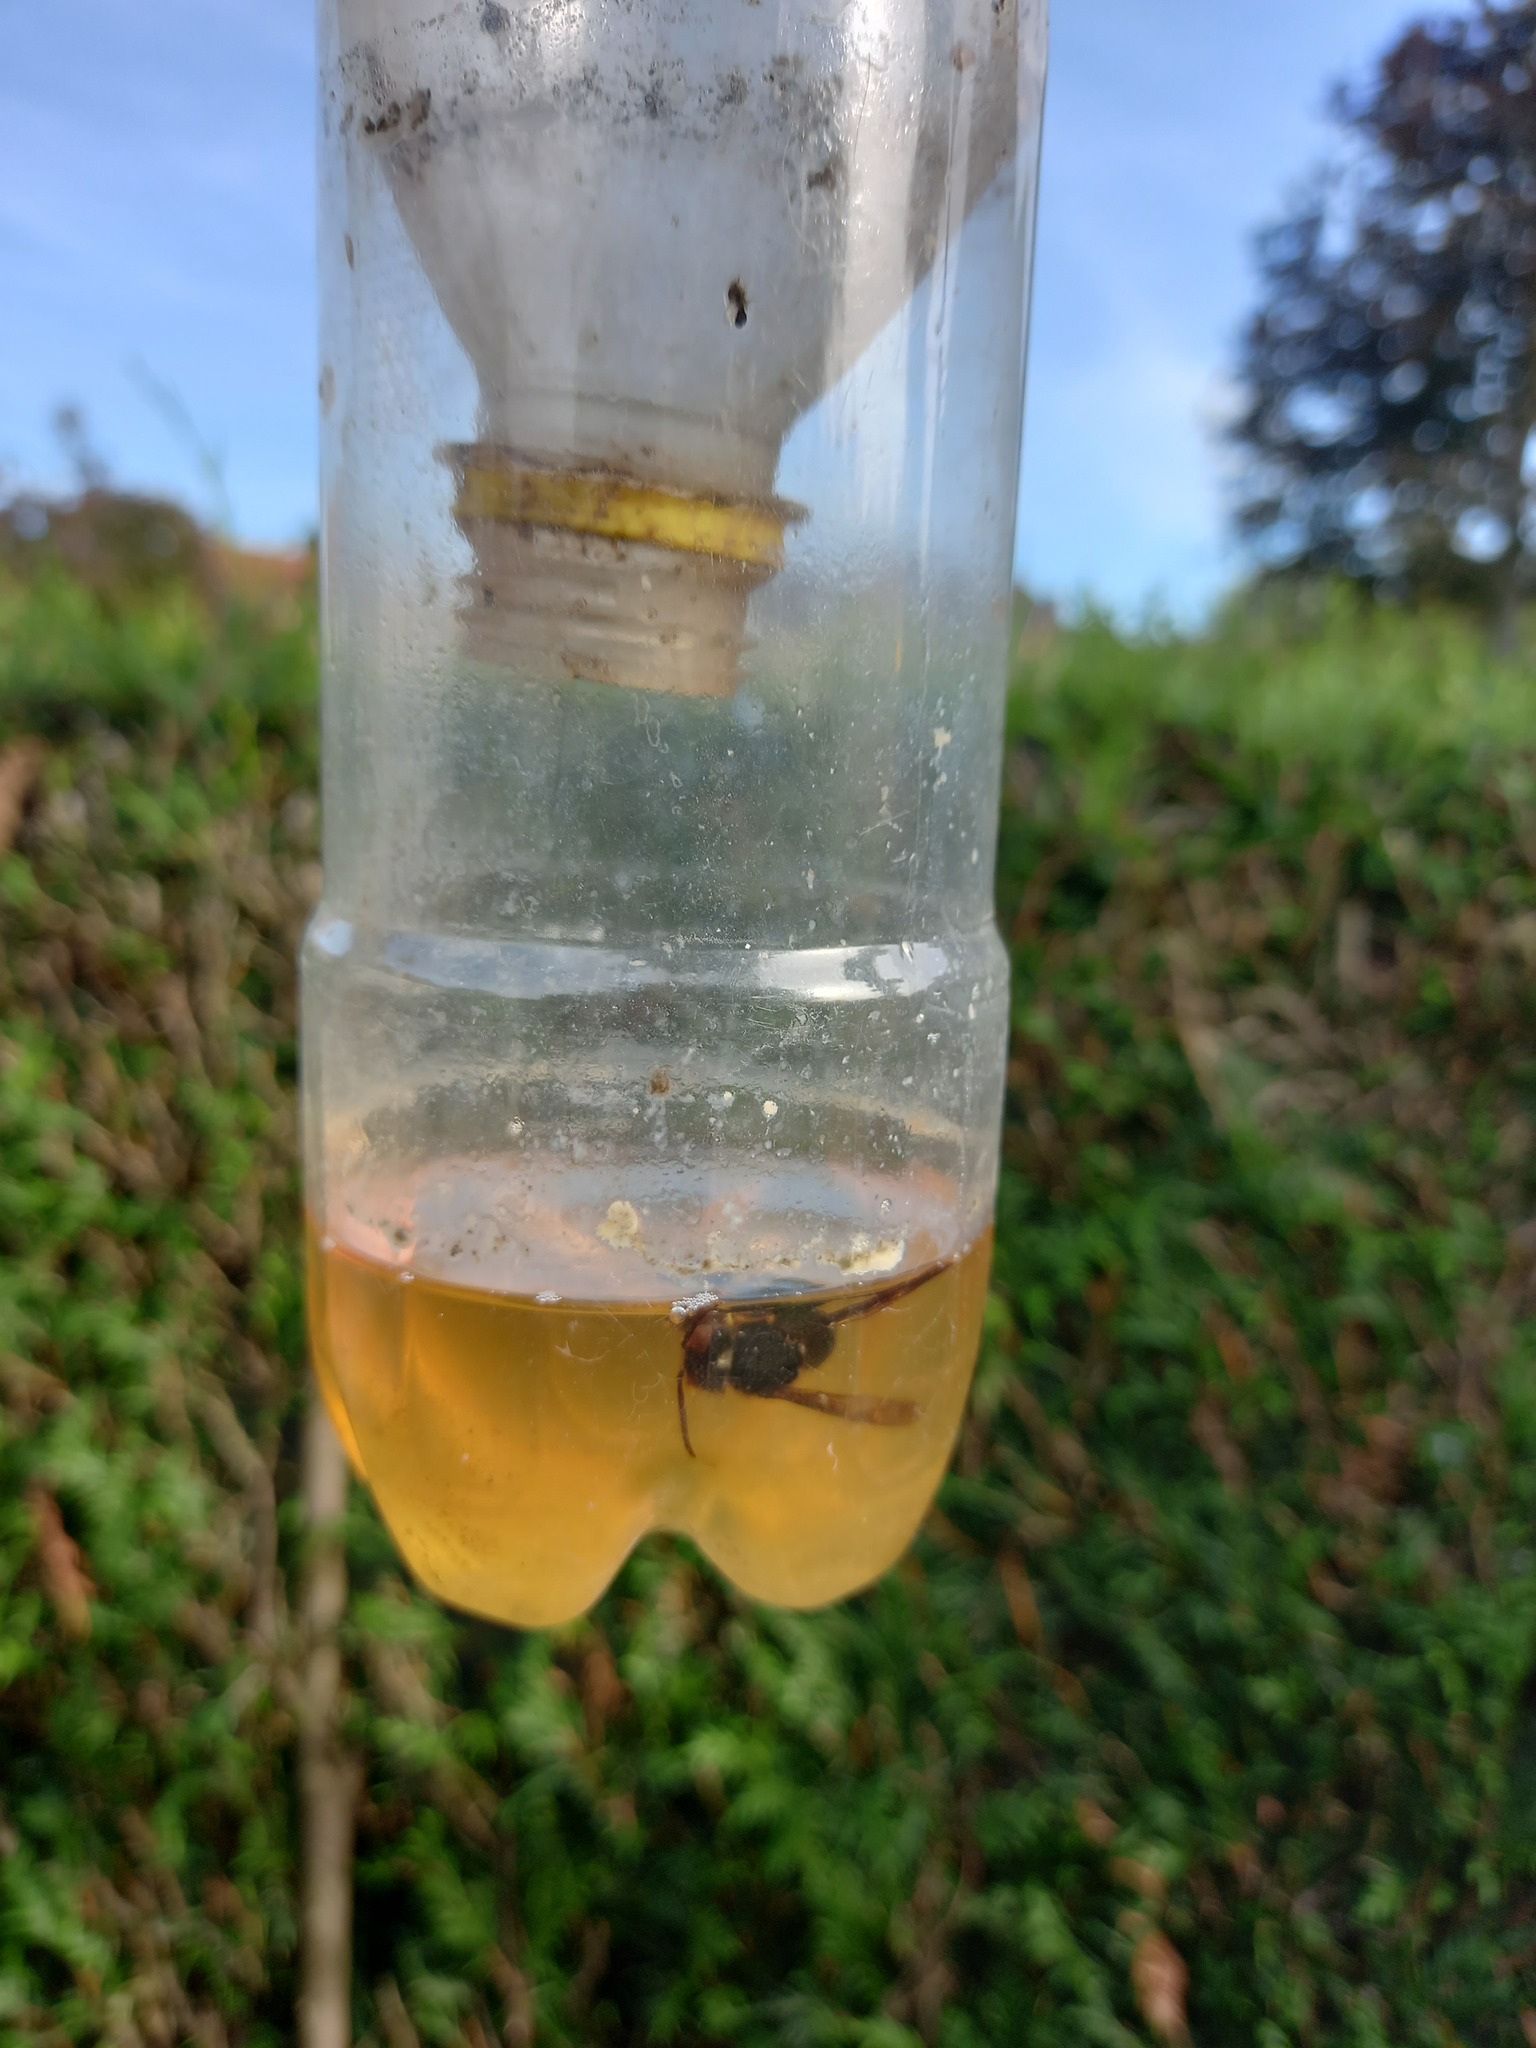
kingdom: Animalia
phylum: Arthropoda
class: Insecta
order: Hymenoptera
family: Vespidae
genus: Vespa
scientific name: Vespa velutina
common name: Asian hornet
